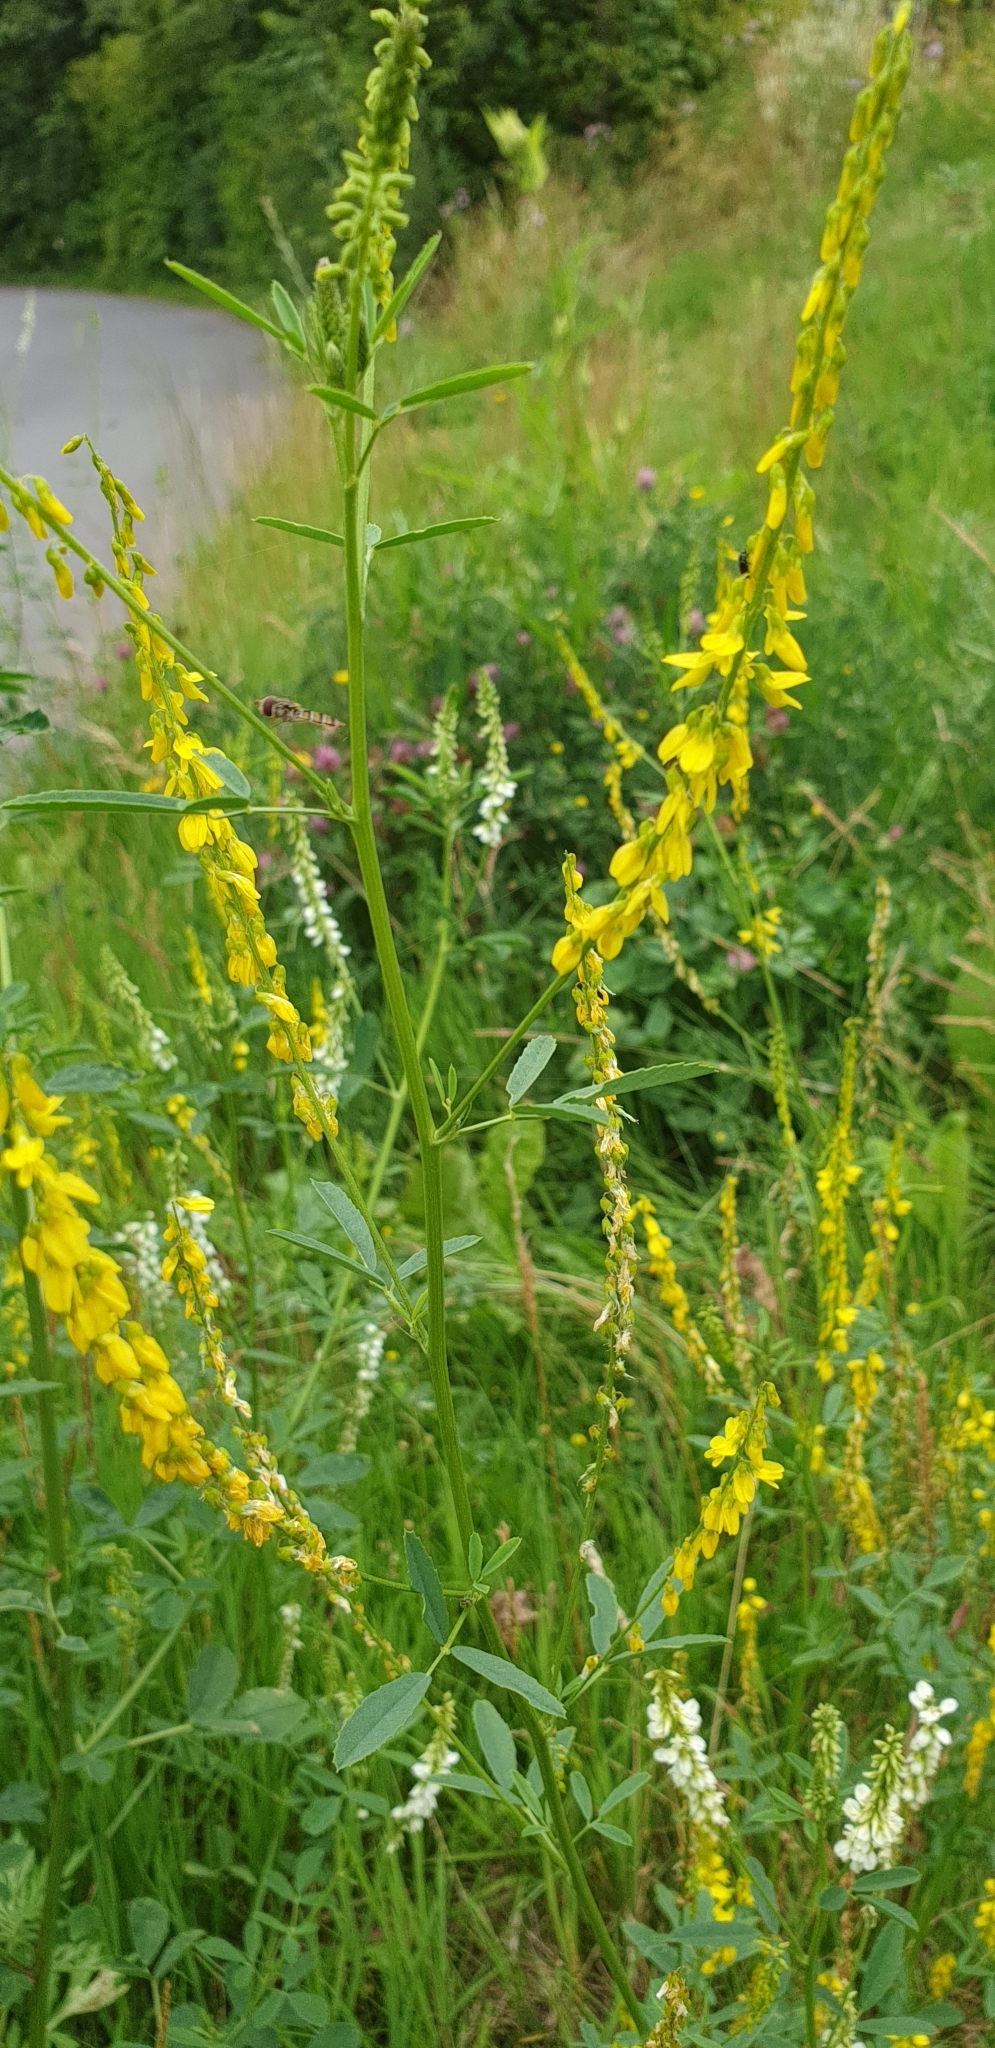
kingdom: Plantae
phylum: Tracheophyta
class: Magnoliopsida
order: Fabales
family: Fabaceae
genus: Melilotus
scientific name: Melilotus officinalis
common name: Sweetclover
